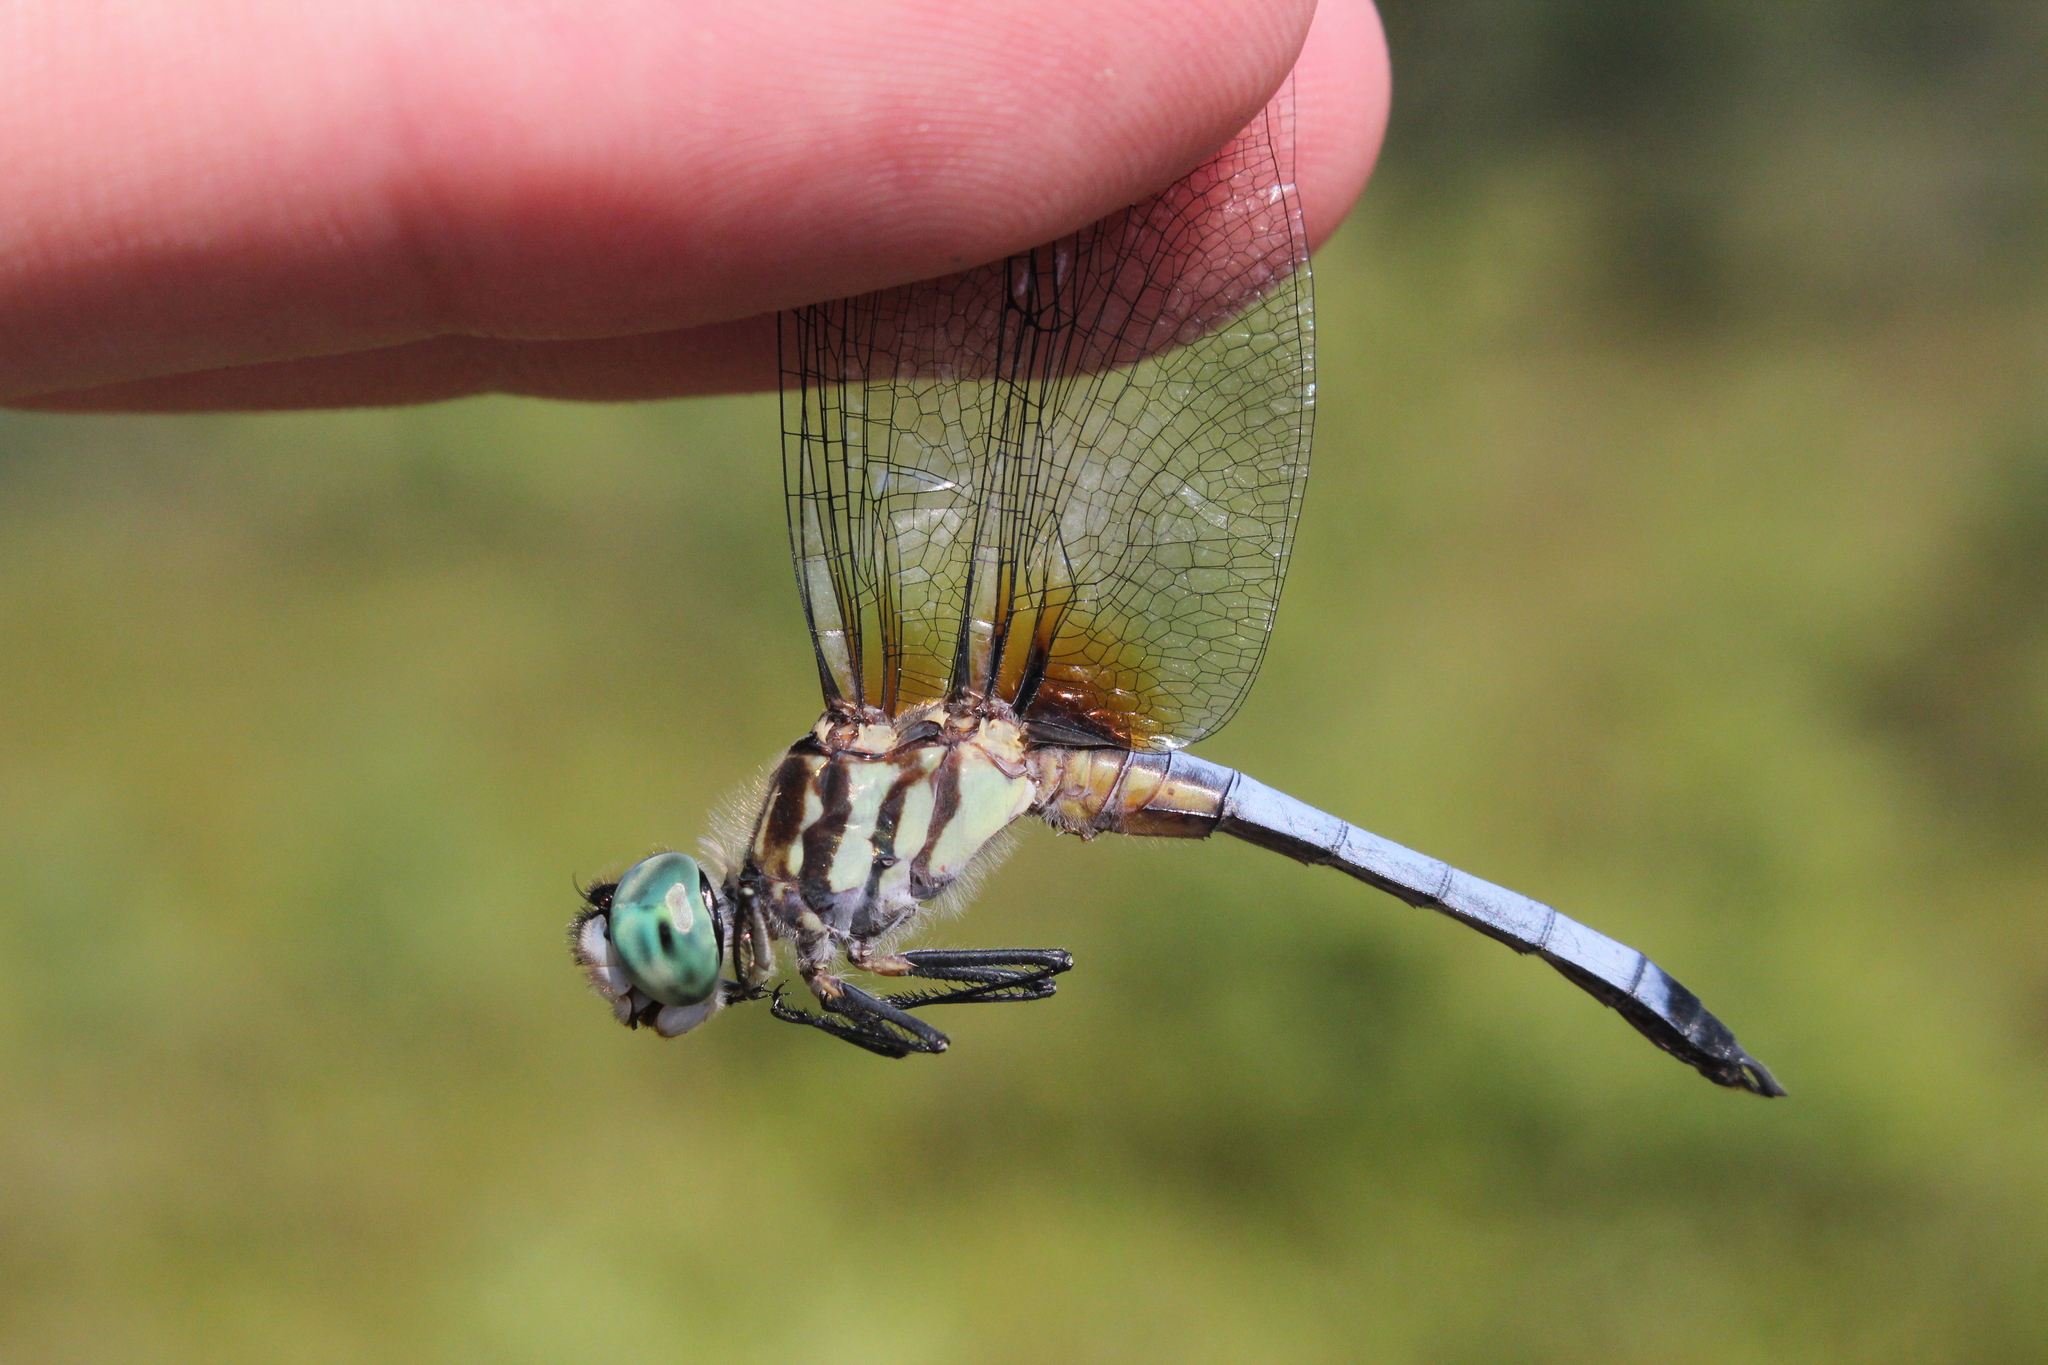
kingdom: Animalia
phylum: Arthropoda
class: Insecta
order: Odonata
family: Libellulidae
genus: Pachydiplax
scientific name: Pachydiplax longipennis
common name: Blue dasher
